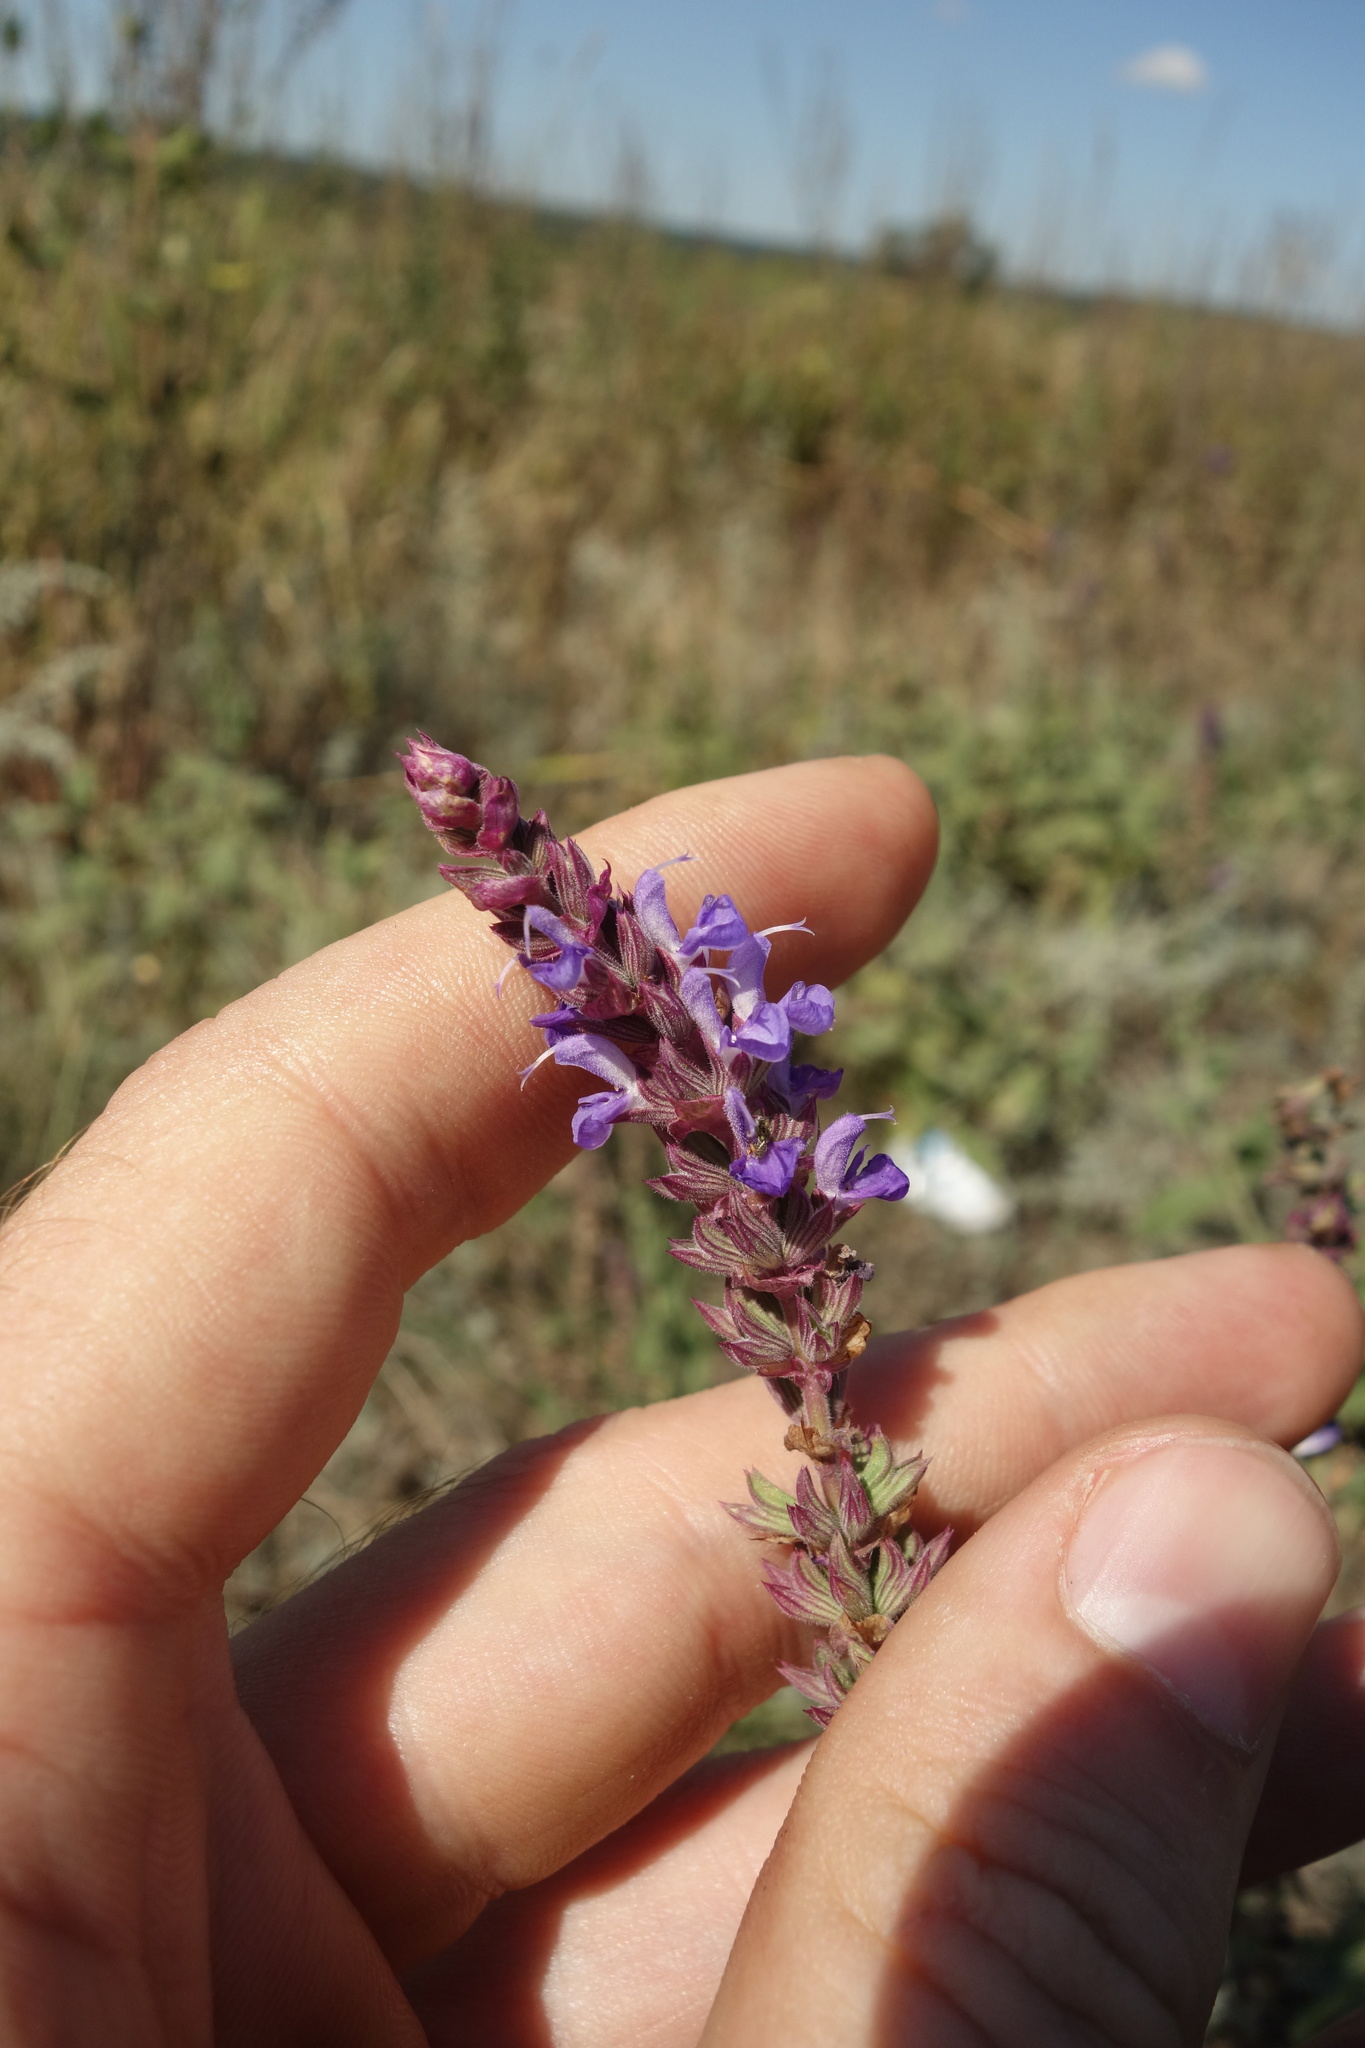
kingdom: Plantae
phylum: Tracheophyta
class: Magnoliopsida
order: Lamiales
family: Lamiaceae
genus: Salvia
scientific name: Salvia nemorosa
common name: Balkan clary
